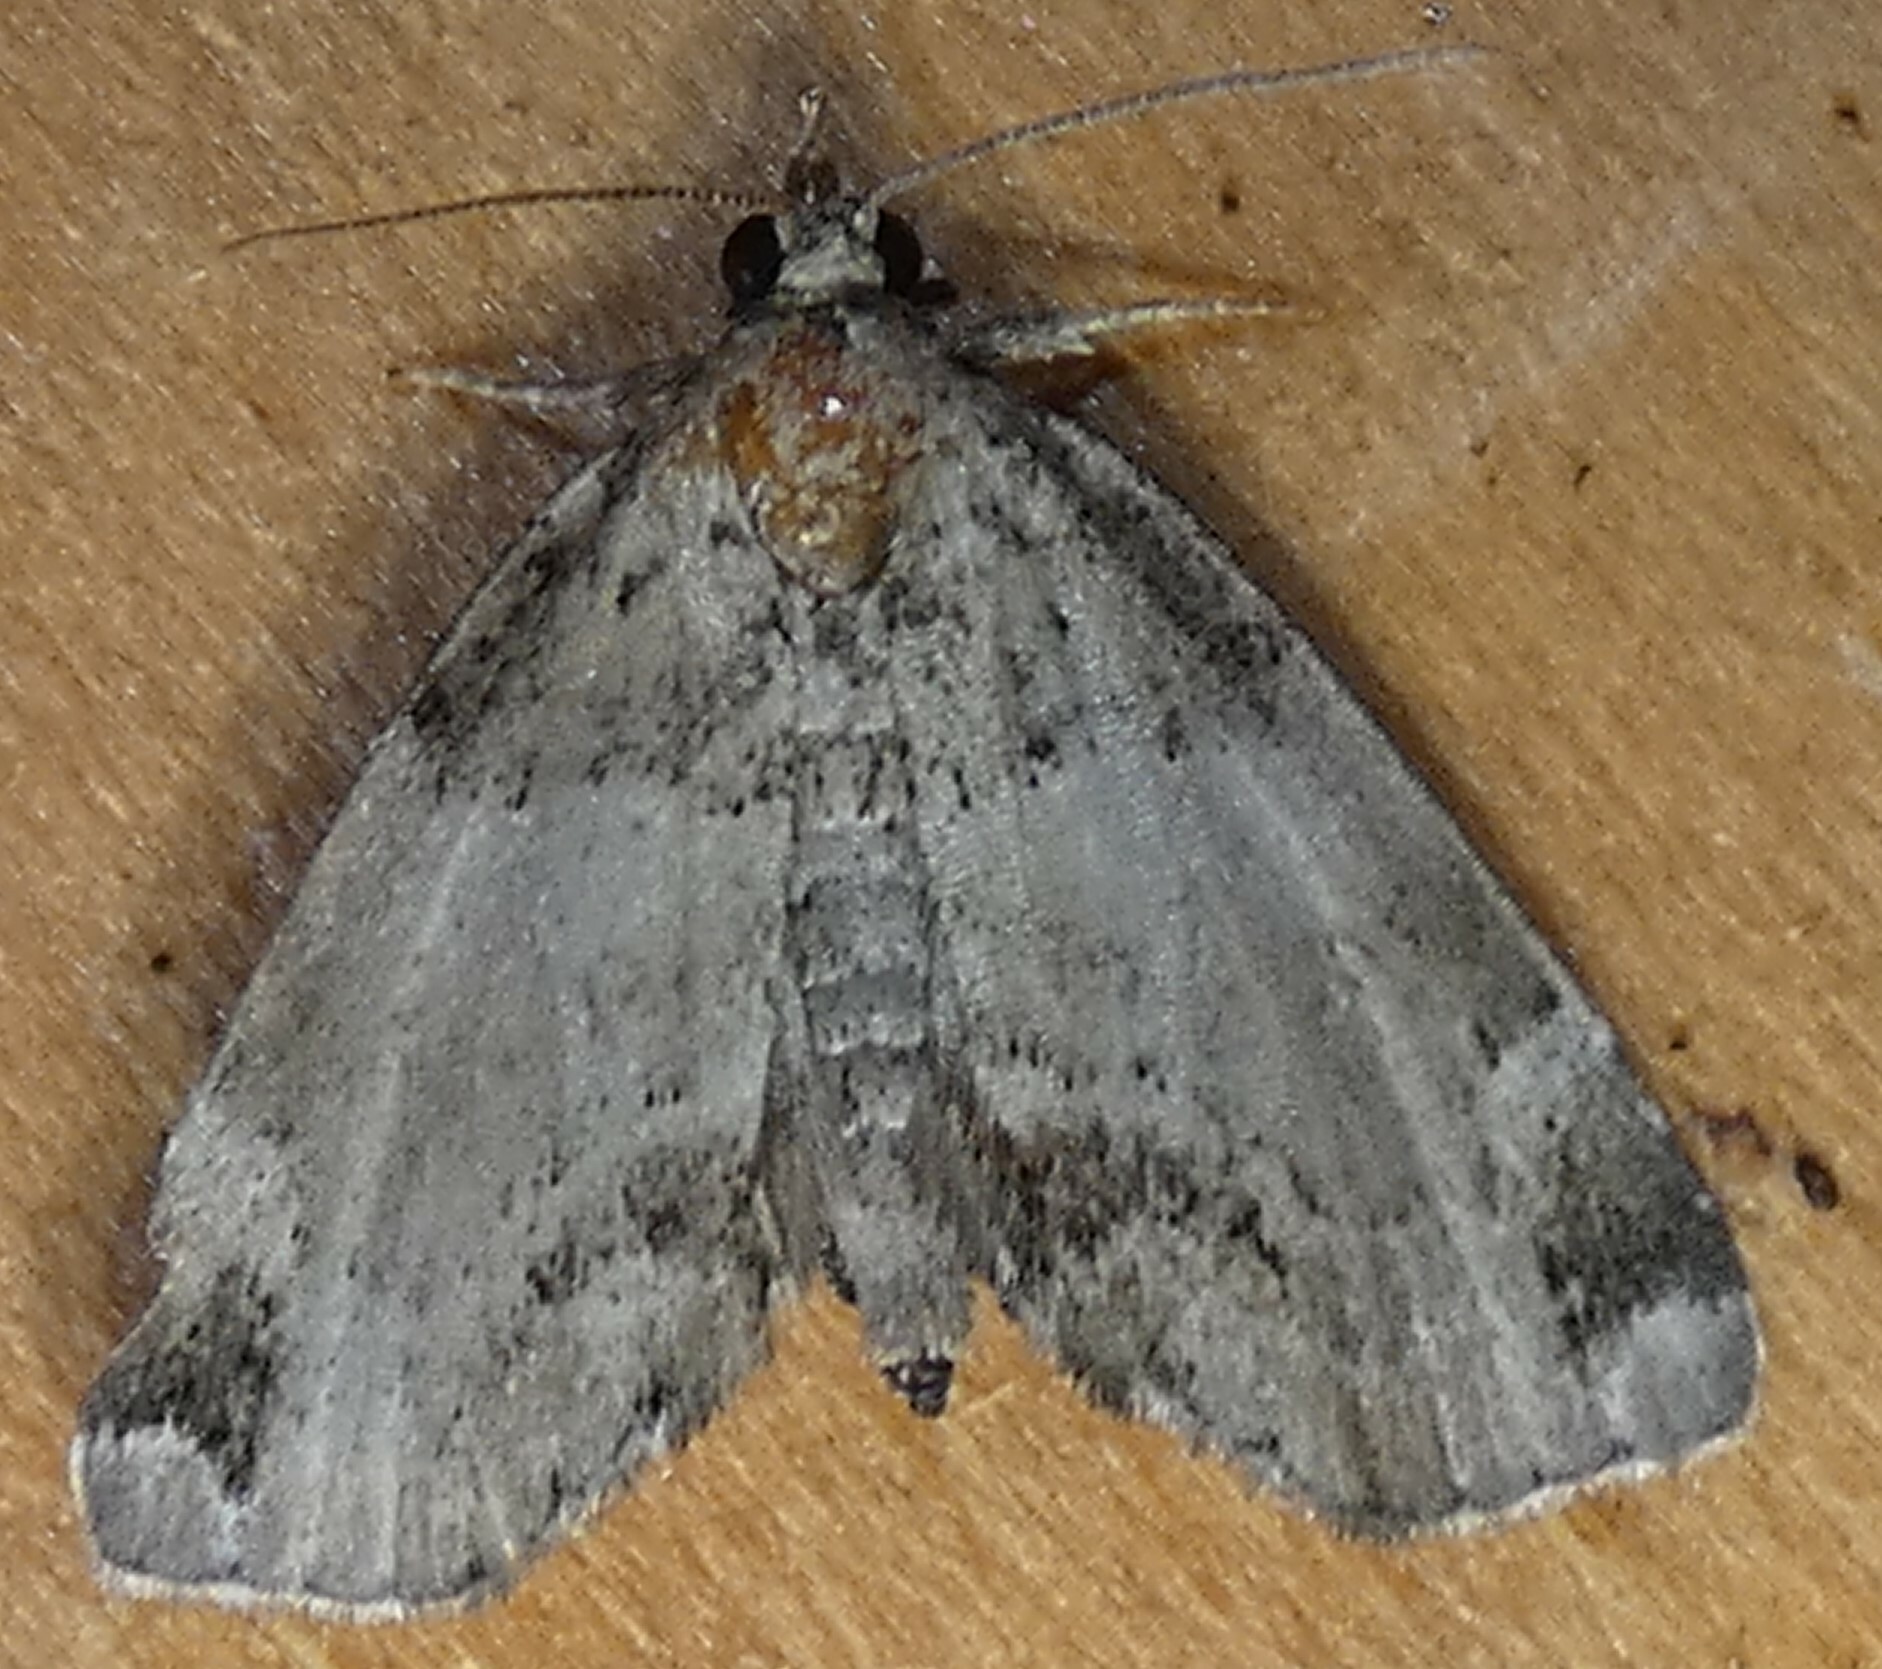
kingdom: Animalia
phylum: Arthropoda
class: Insecta
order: Lepidoptera
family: Erebidae
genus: Cutina
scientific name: Cutina distincta
